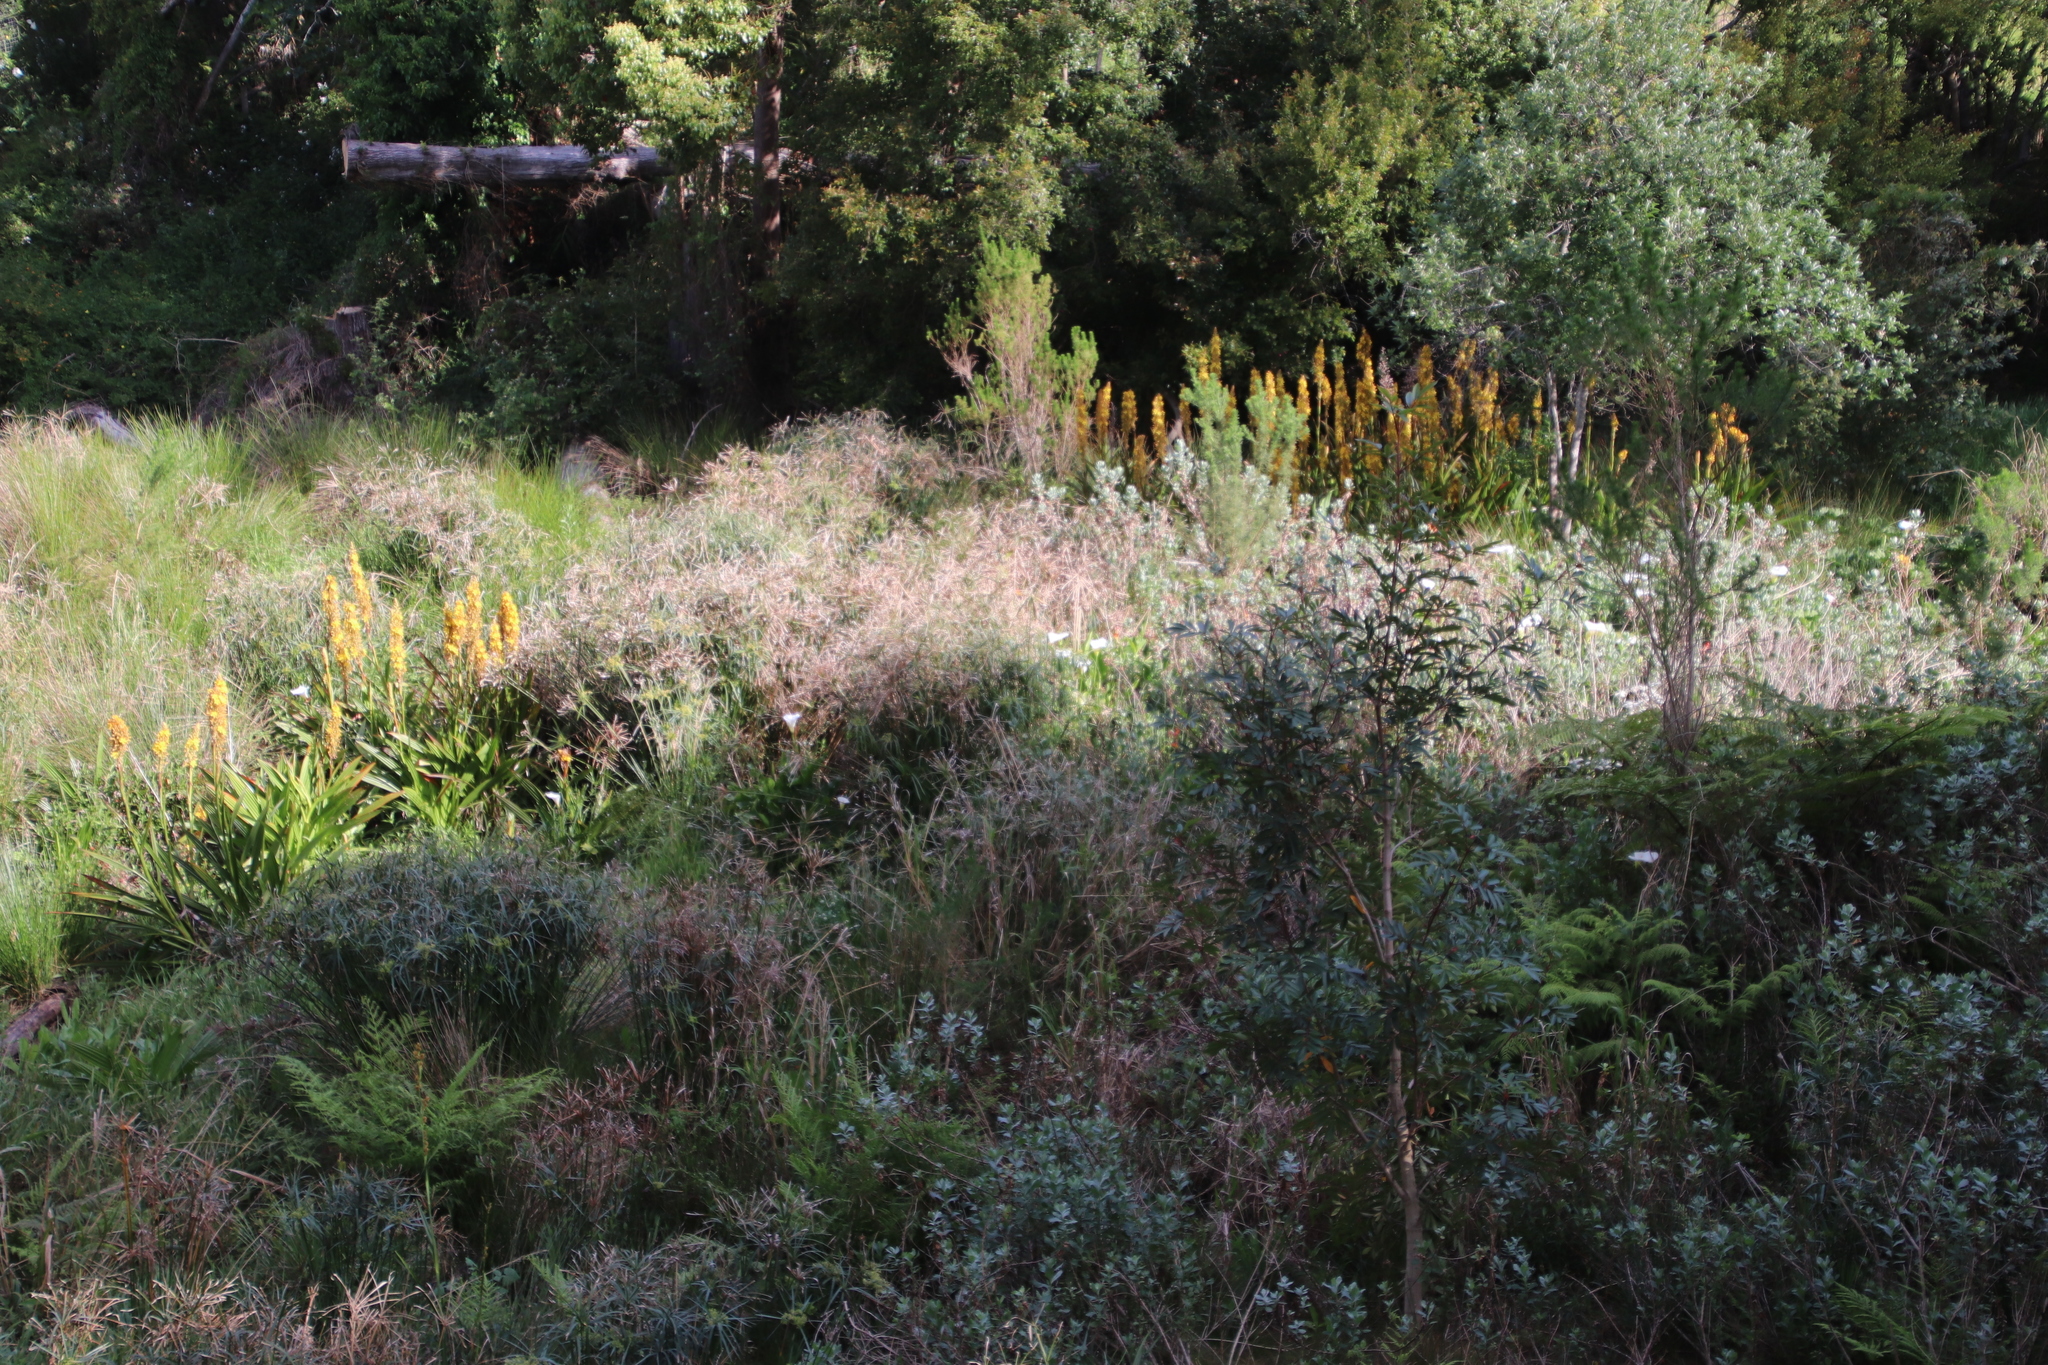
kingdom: Plantae
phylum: Tracheophyta
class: Liliopsida
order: Commelinales
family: Haemodoraceae
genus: Wachendorfia
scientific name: Wachendorfia thyrsiflora
